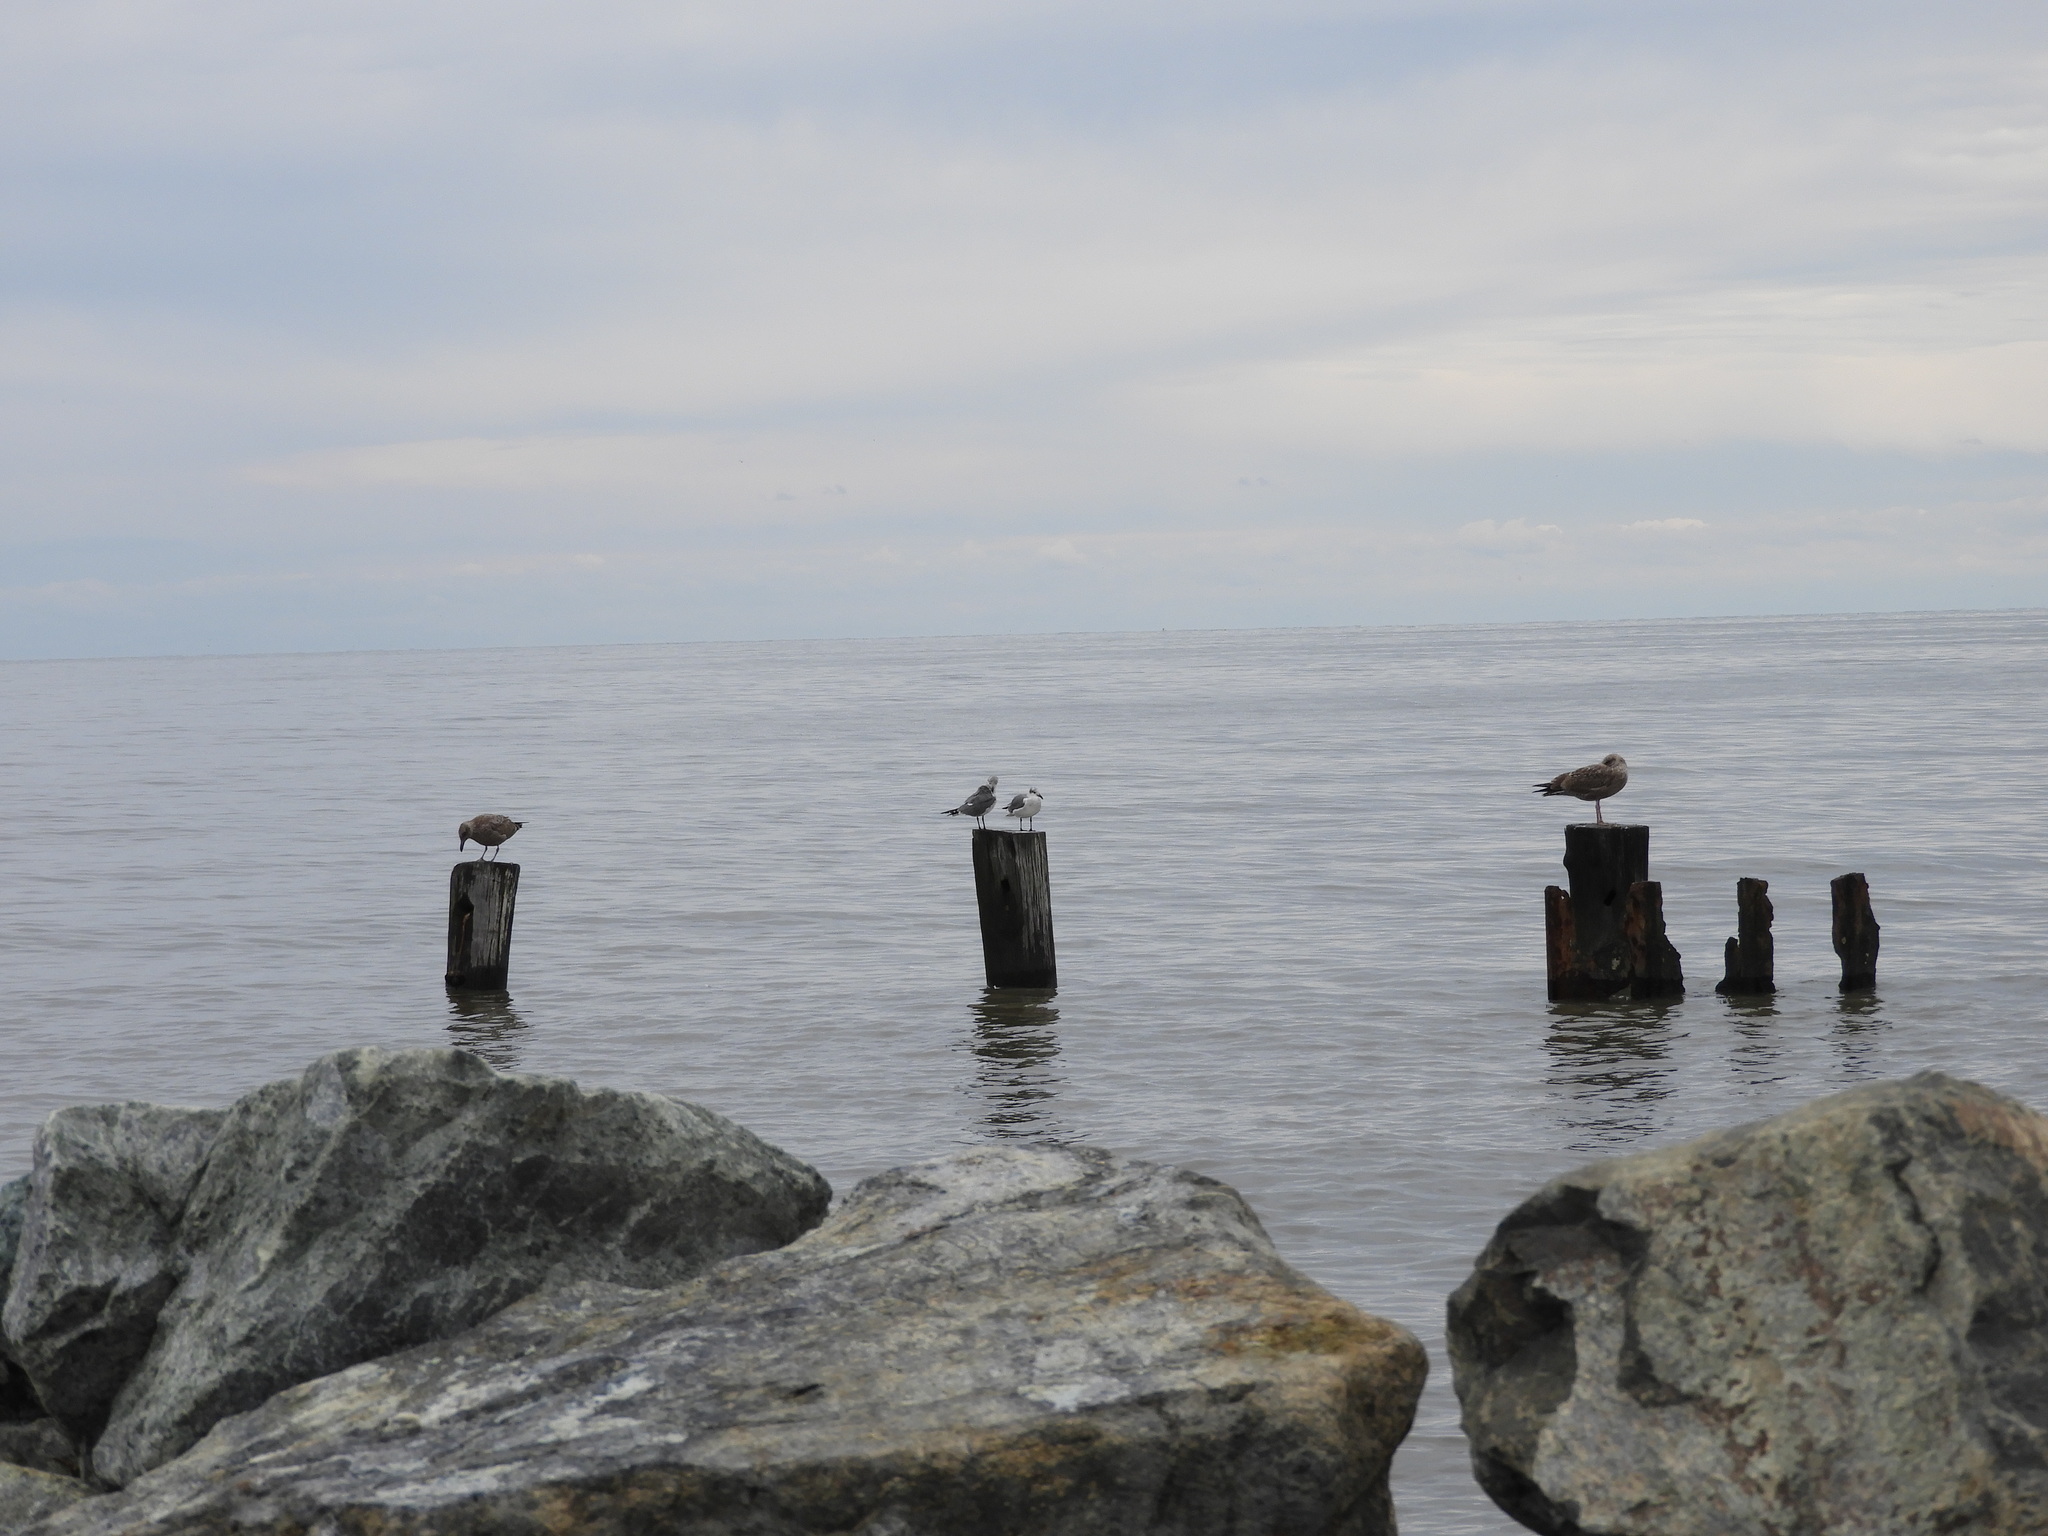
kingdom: Animalia
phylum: Chordata
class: Aves
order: Charadriiformes
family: Laridae
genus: Leucophaeus
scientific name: Leucophaeus atricilla
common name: Laughing gull
